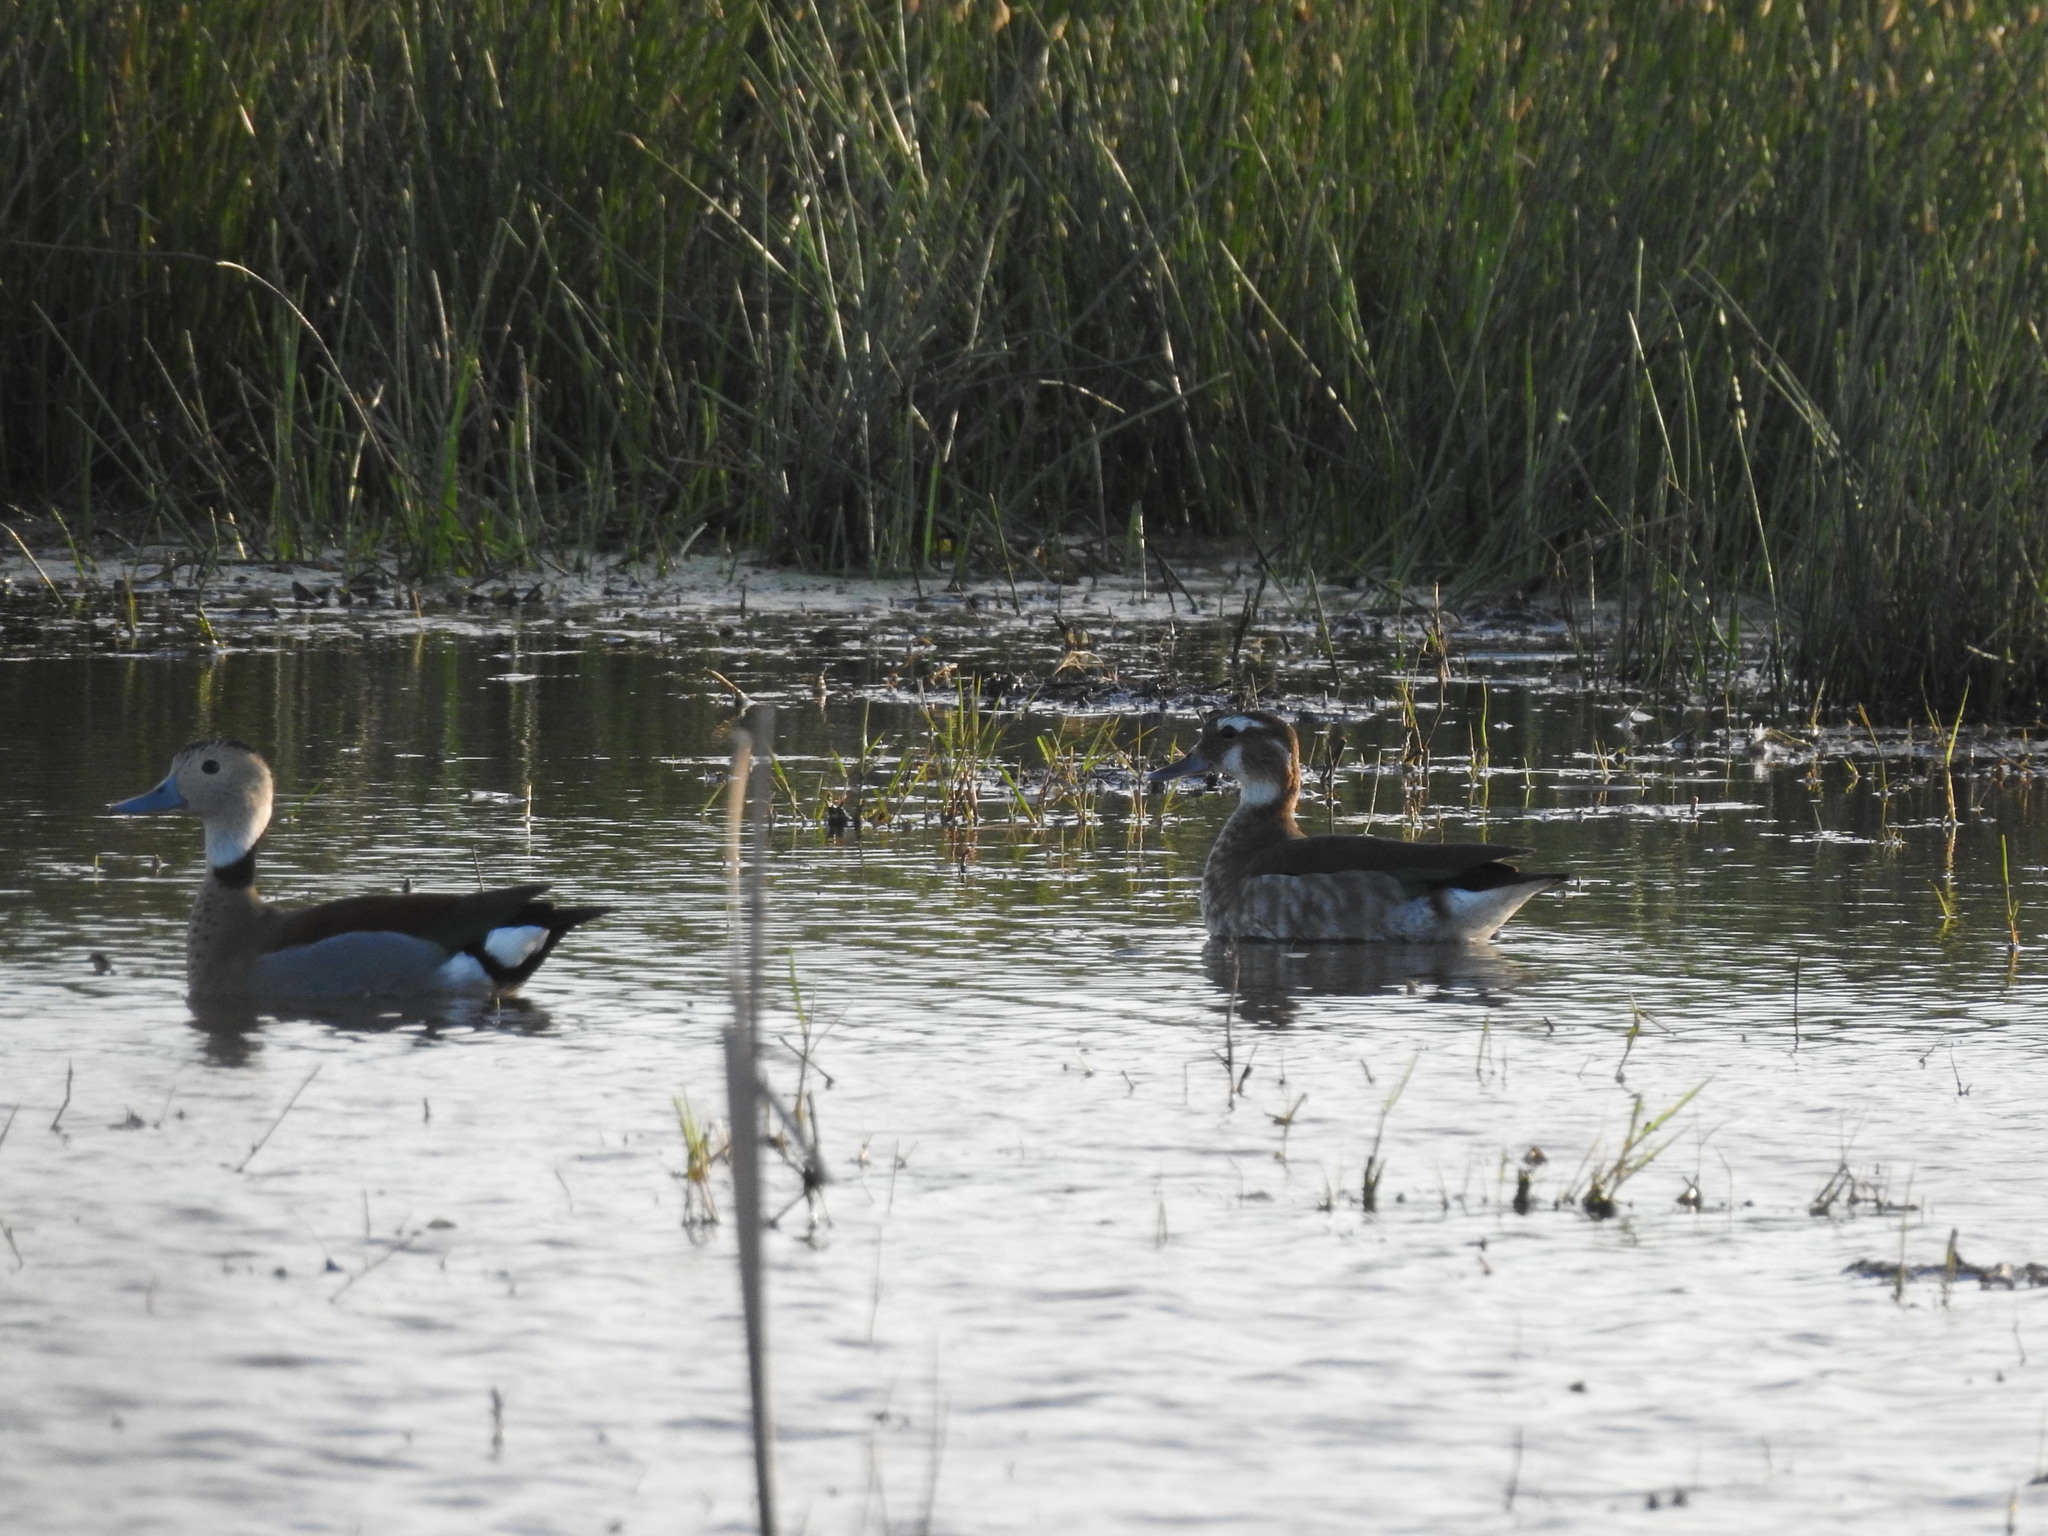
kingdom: Animalia
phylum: Chordata
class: Aves
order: Anseriformes
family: Anatidae
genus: Callonetta
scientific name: Callonetta leucophrys
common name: Ringed teal
